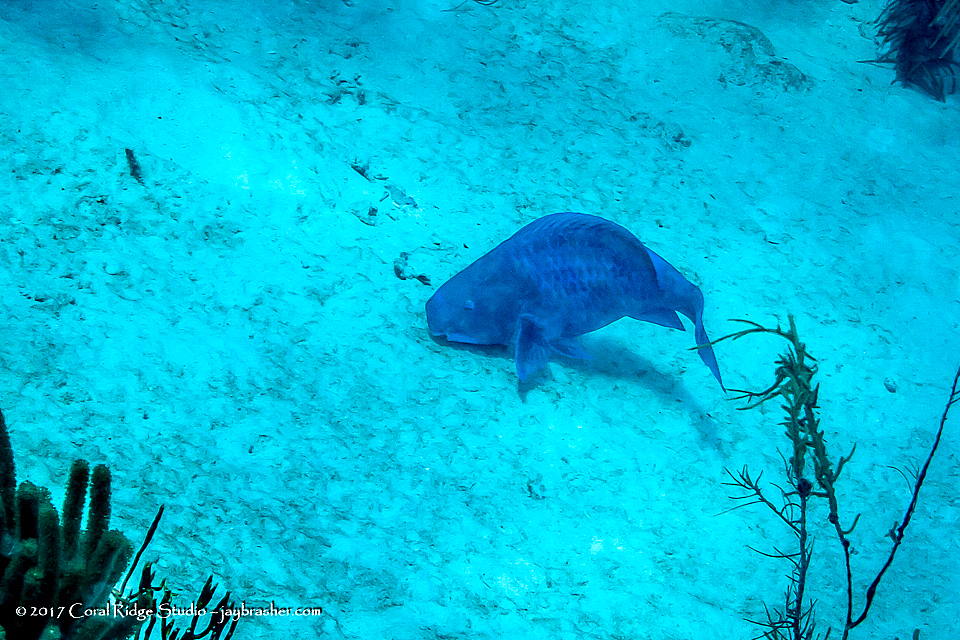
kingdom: Animalia
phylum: Chordata
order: Perciformes
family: Scaridae
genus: Scarus
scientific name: Scarus coeruleus
